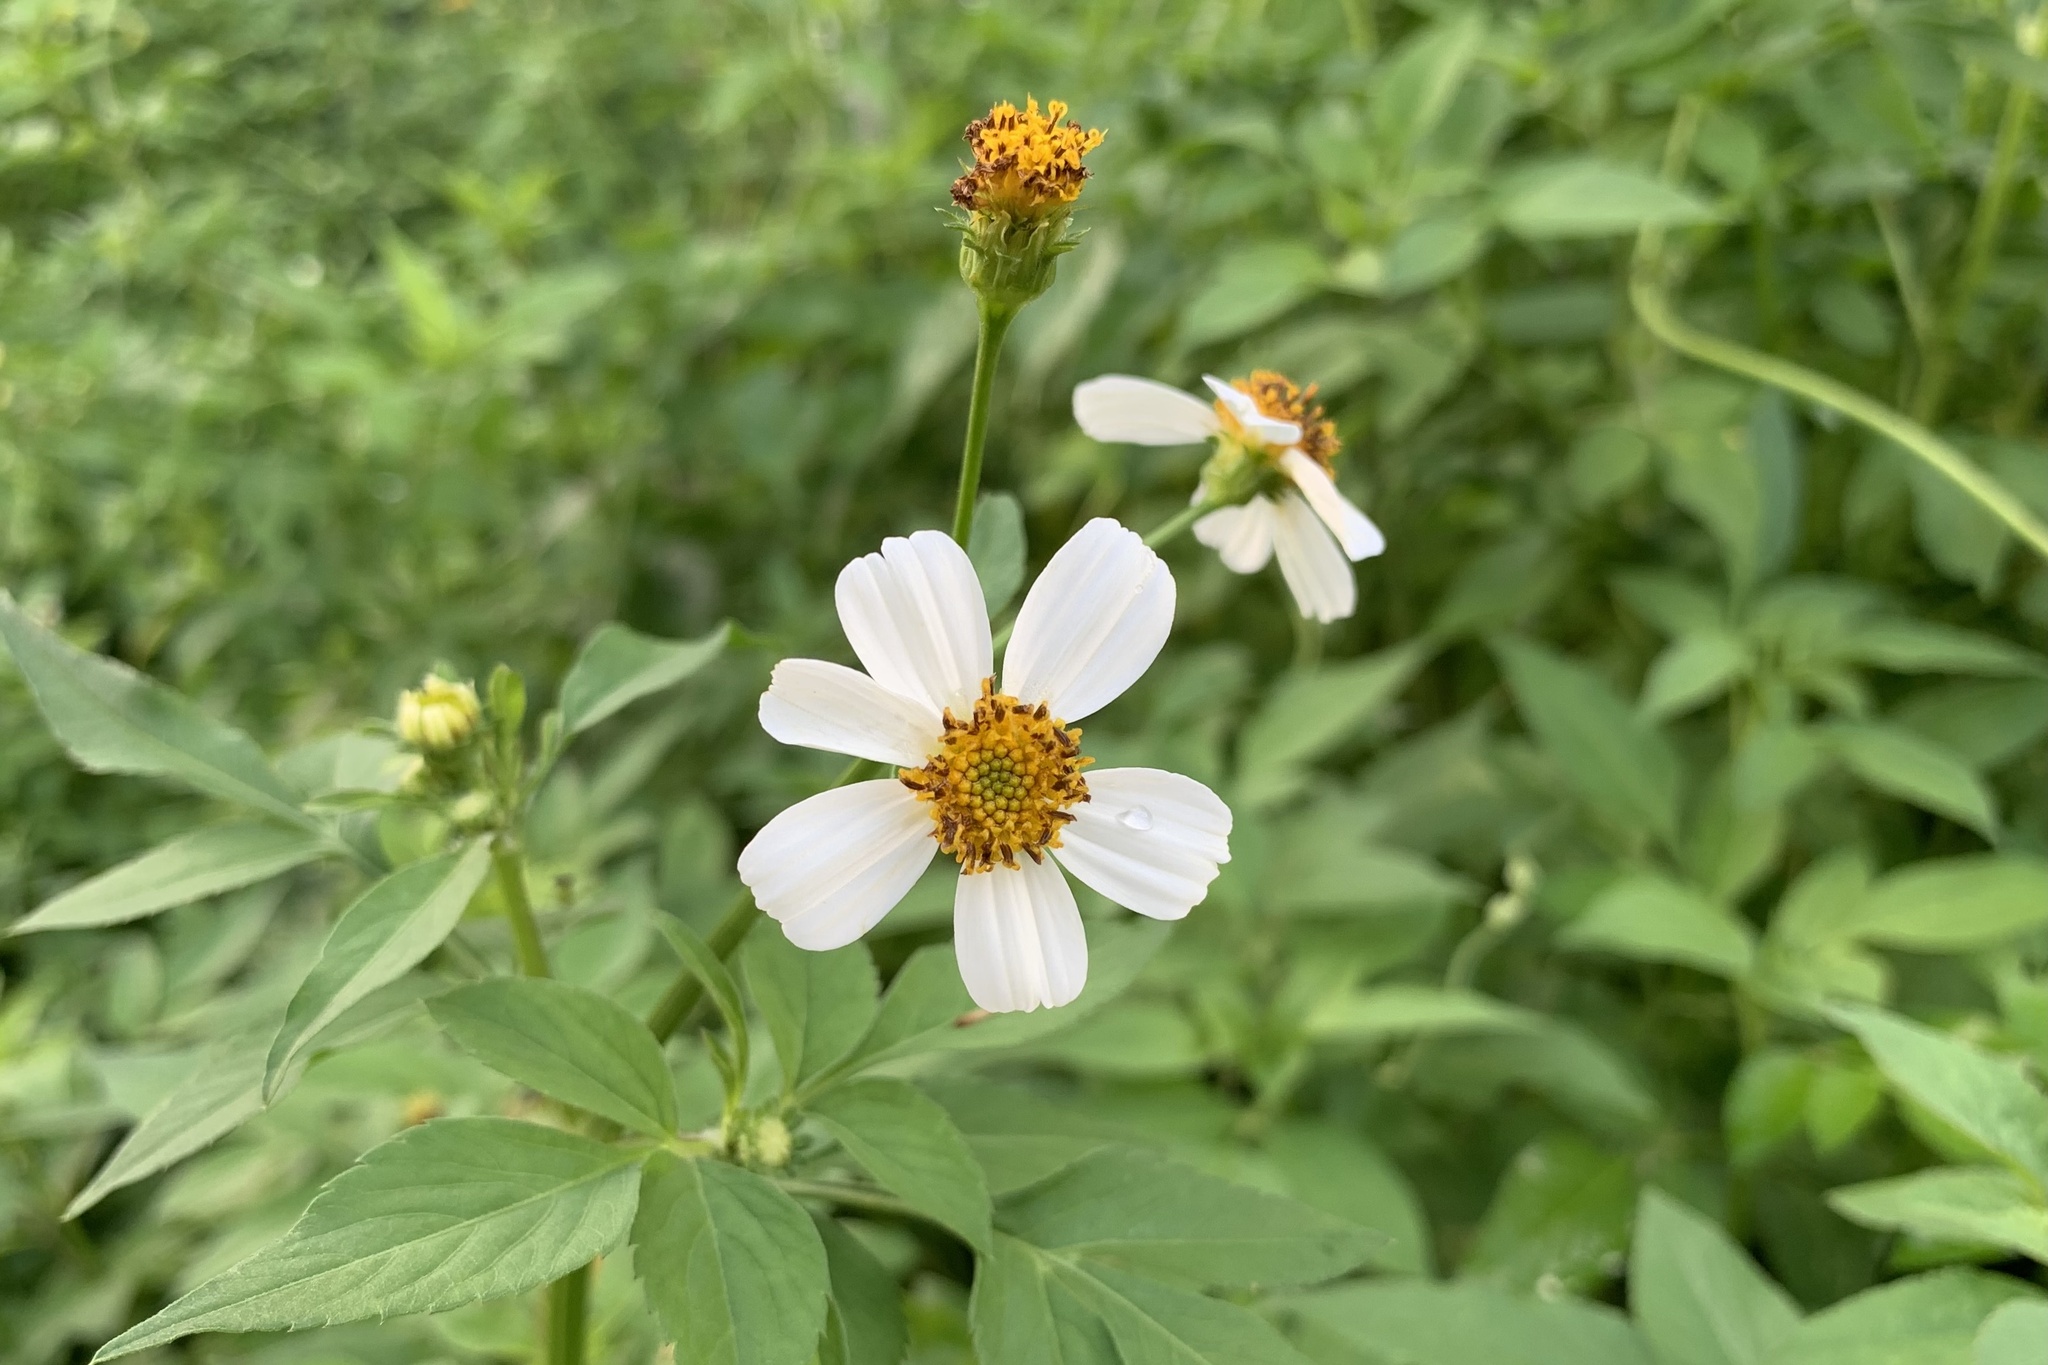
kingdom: Plantae
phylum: Tracheophyta
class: Magnoliopsida
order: Asterales
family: Asteraceae
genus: Bidens
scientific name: Bidens pilosa
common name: Black-jack
